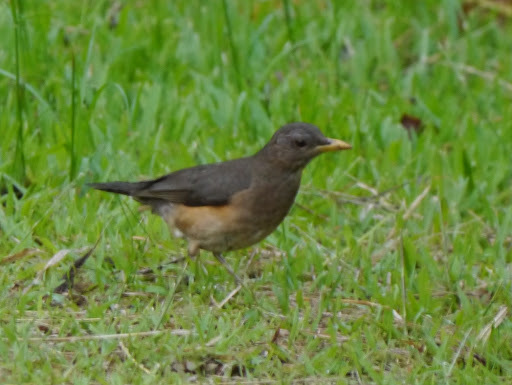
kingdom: Animalia
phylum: Chordata
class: Aves
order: Passeriformes
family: Turdidae
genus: Turdus
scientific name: Turdus pelios
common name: African thrush
